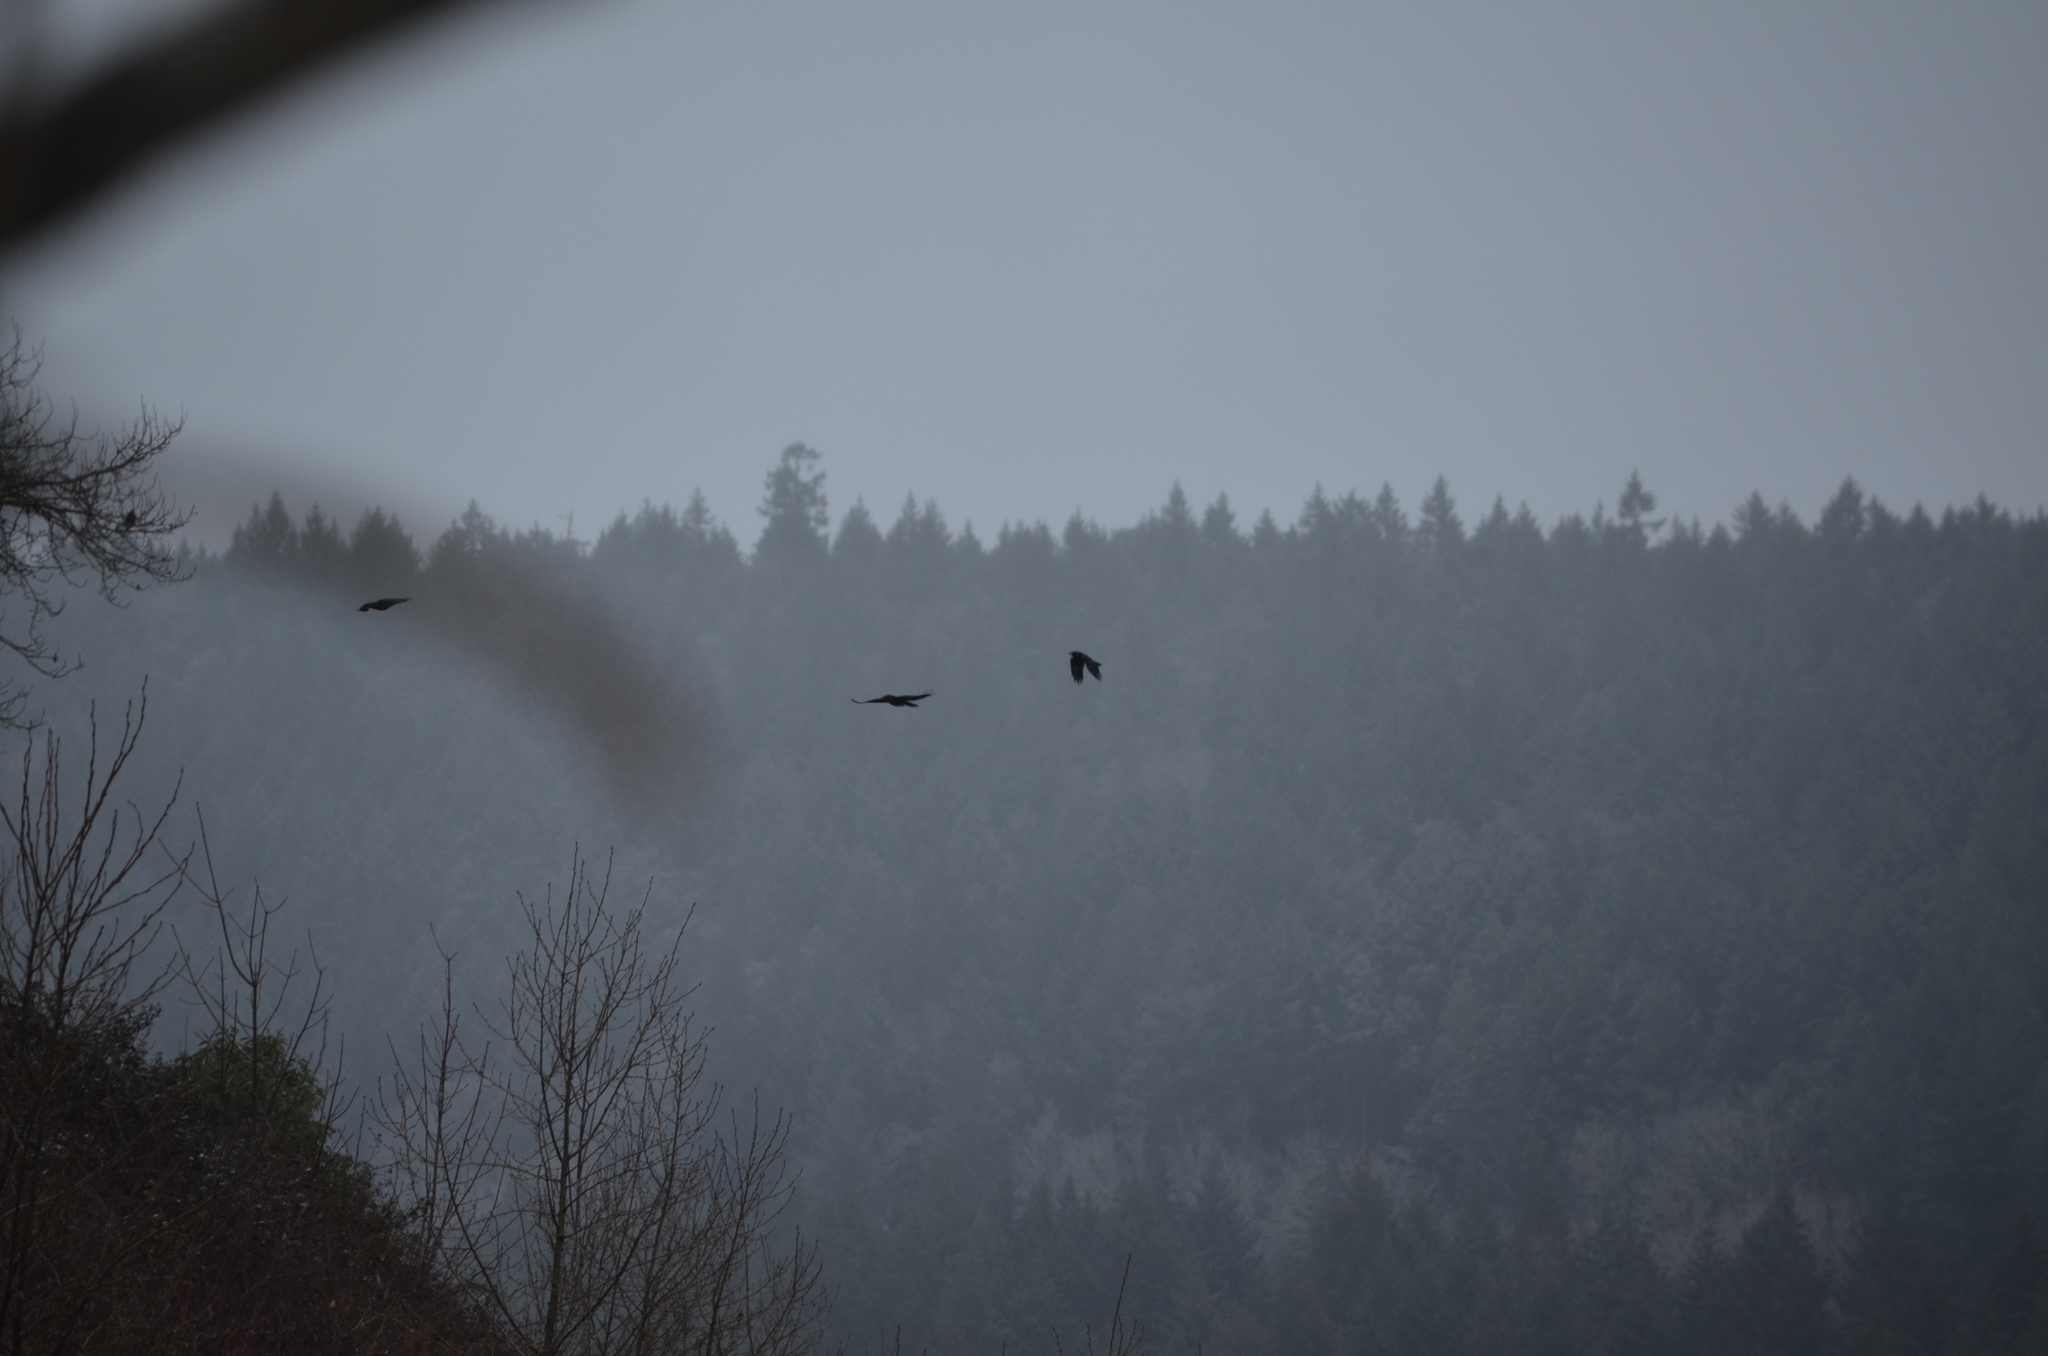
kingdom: Animalia
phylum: Chordata
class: Aves
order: Passeriformes
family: Corvidae
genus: Corvus
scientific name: Corvus brachyrhynchos
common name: American crow
